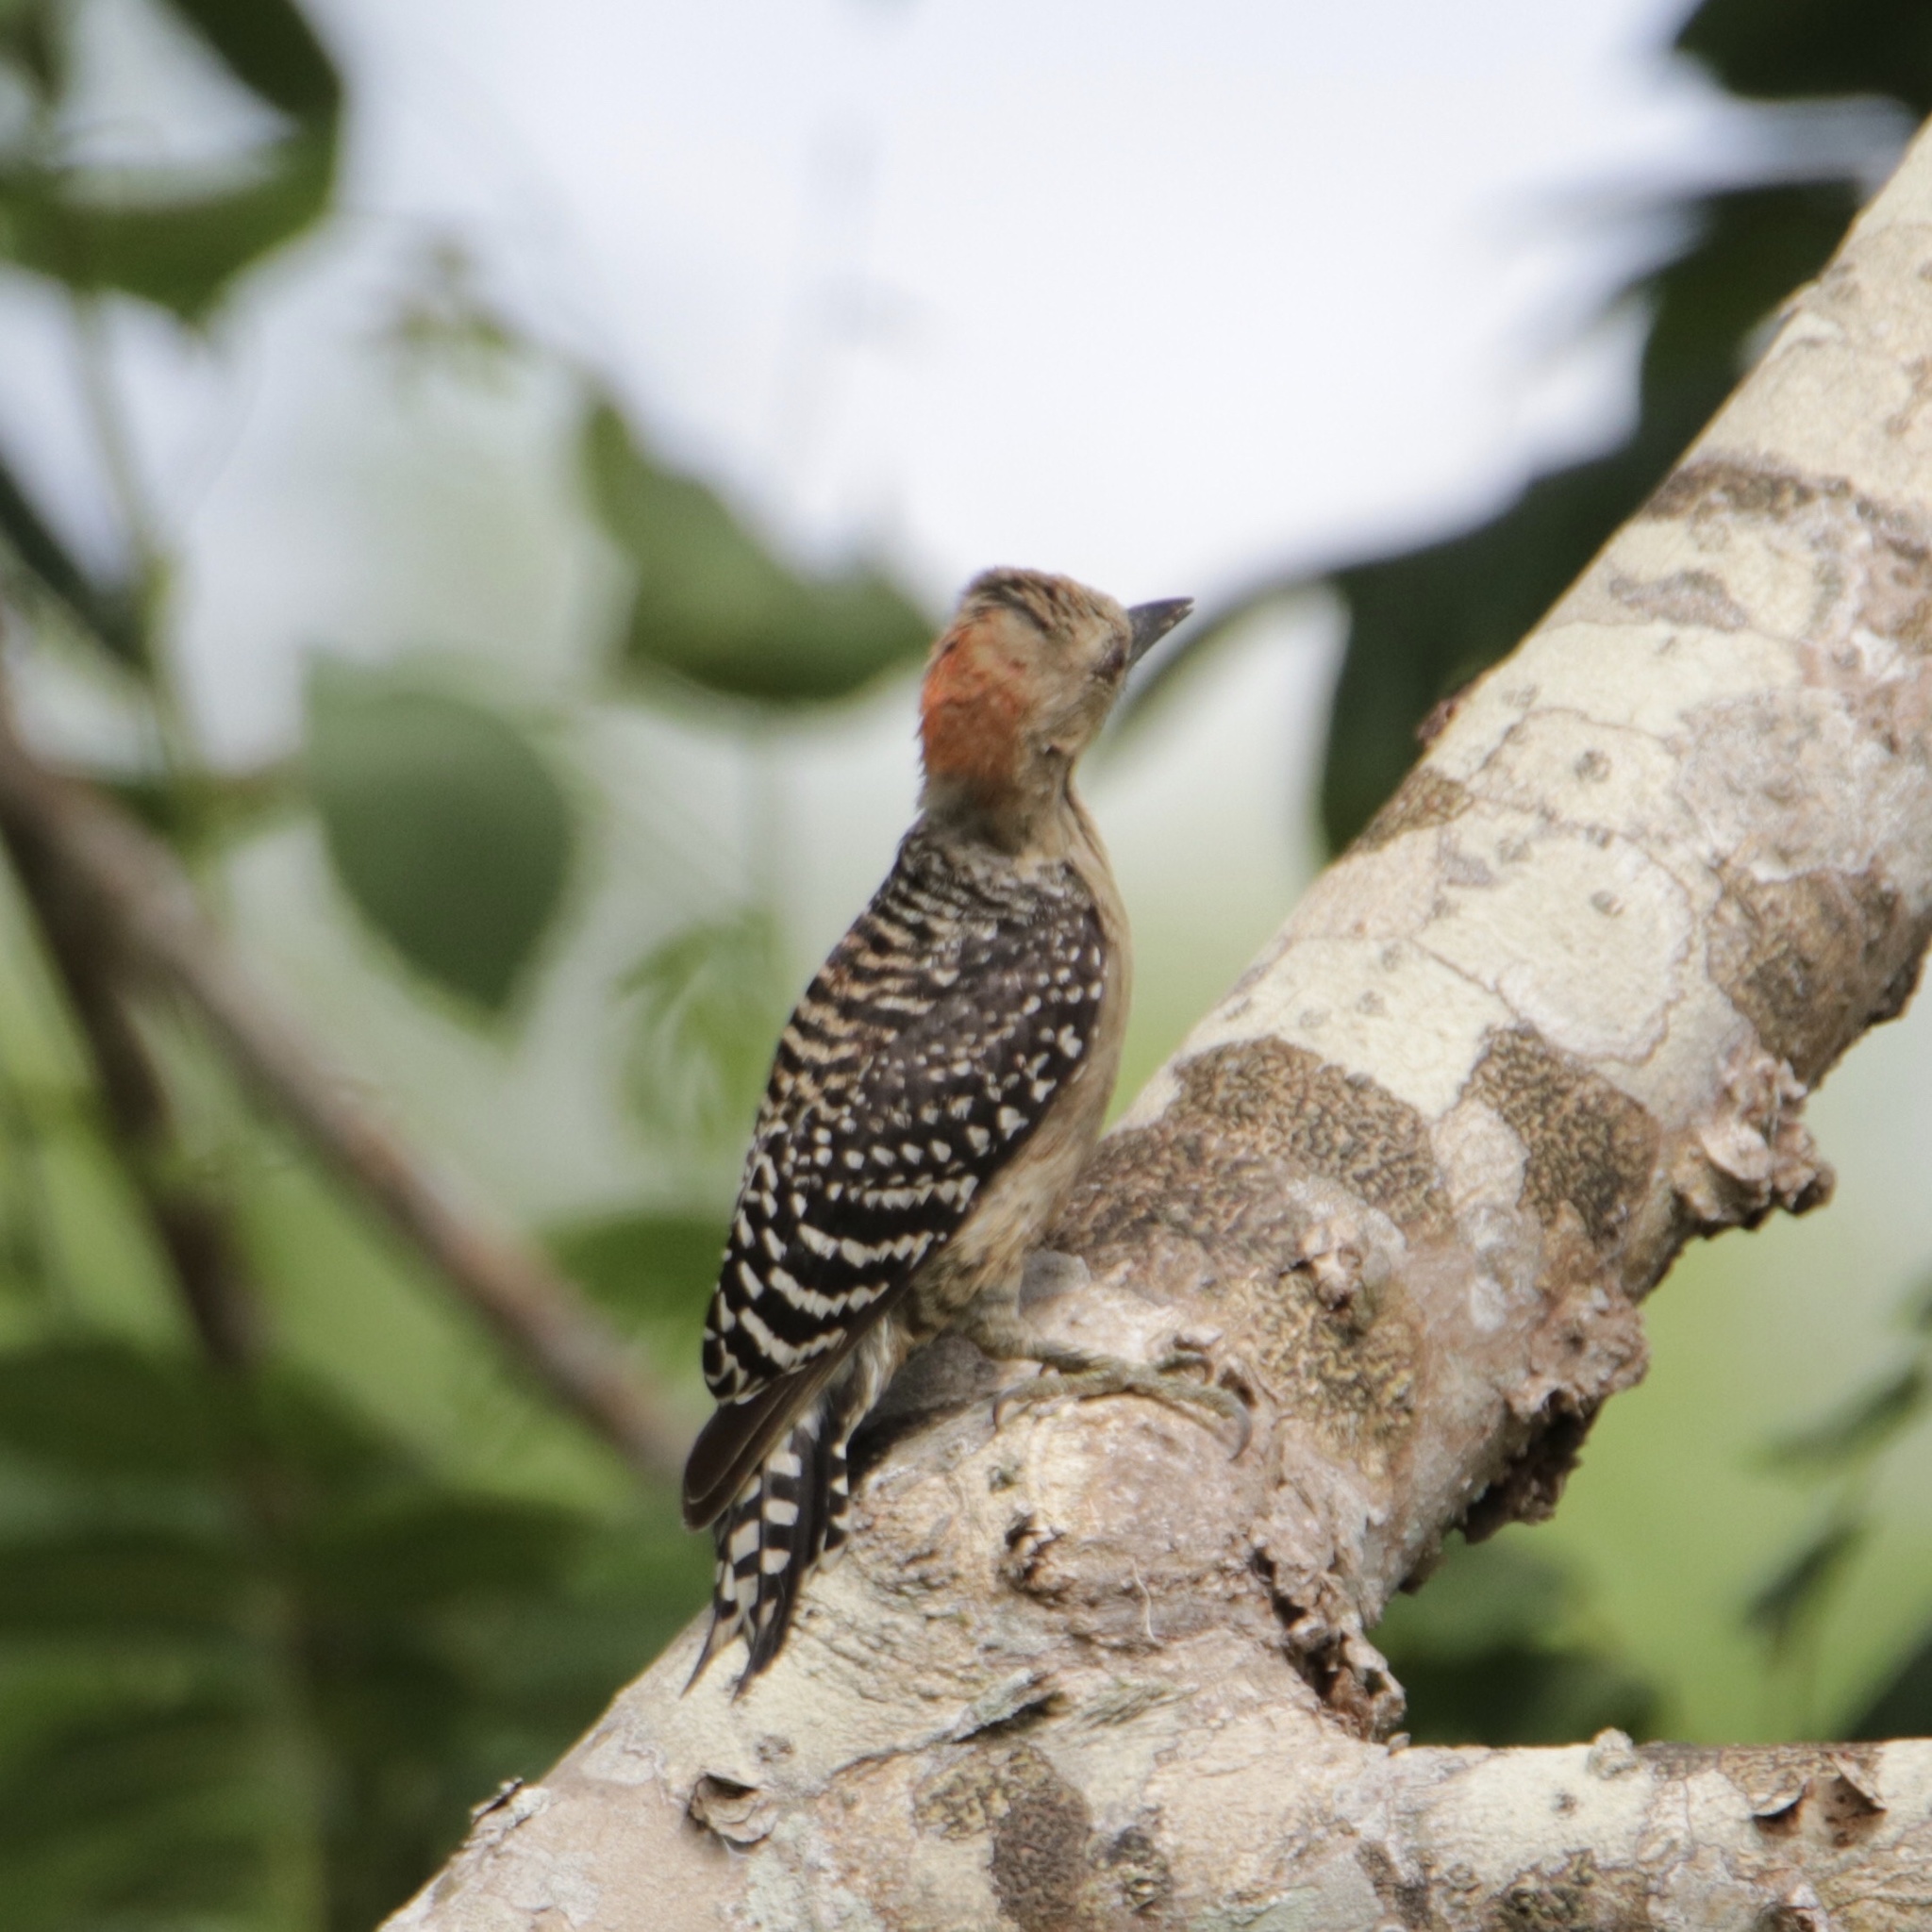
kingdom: Animalia
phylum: Chordata
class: Aves
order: Piciformes
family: Picidae
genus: Melanerpes
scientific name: Melanerpes rubricapillus
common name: Red-crowned woodpecker
